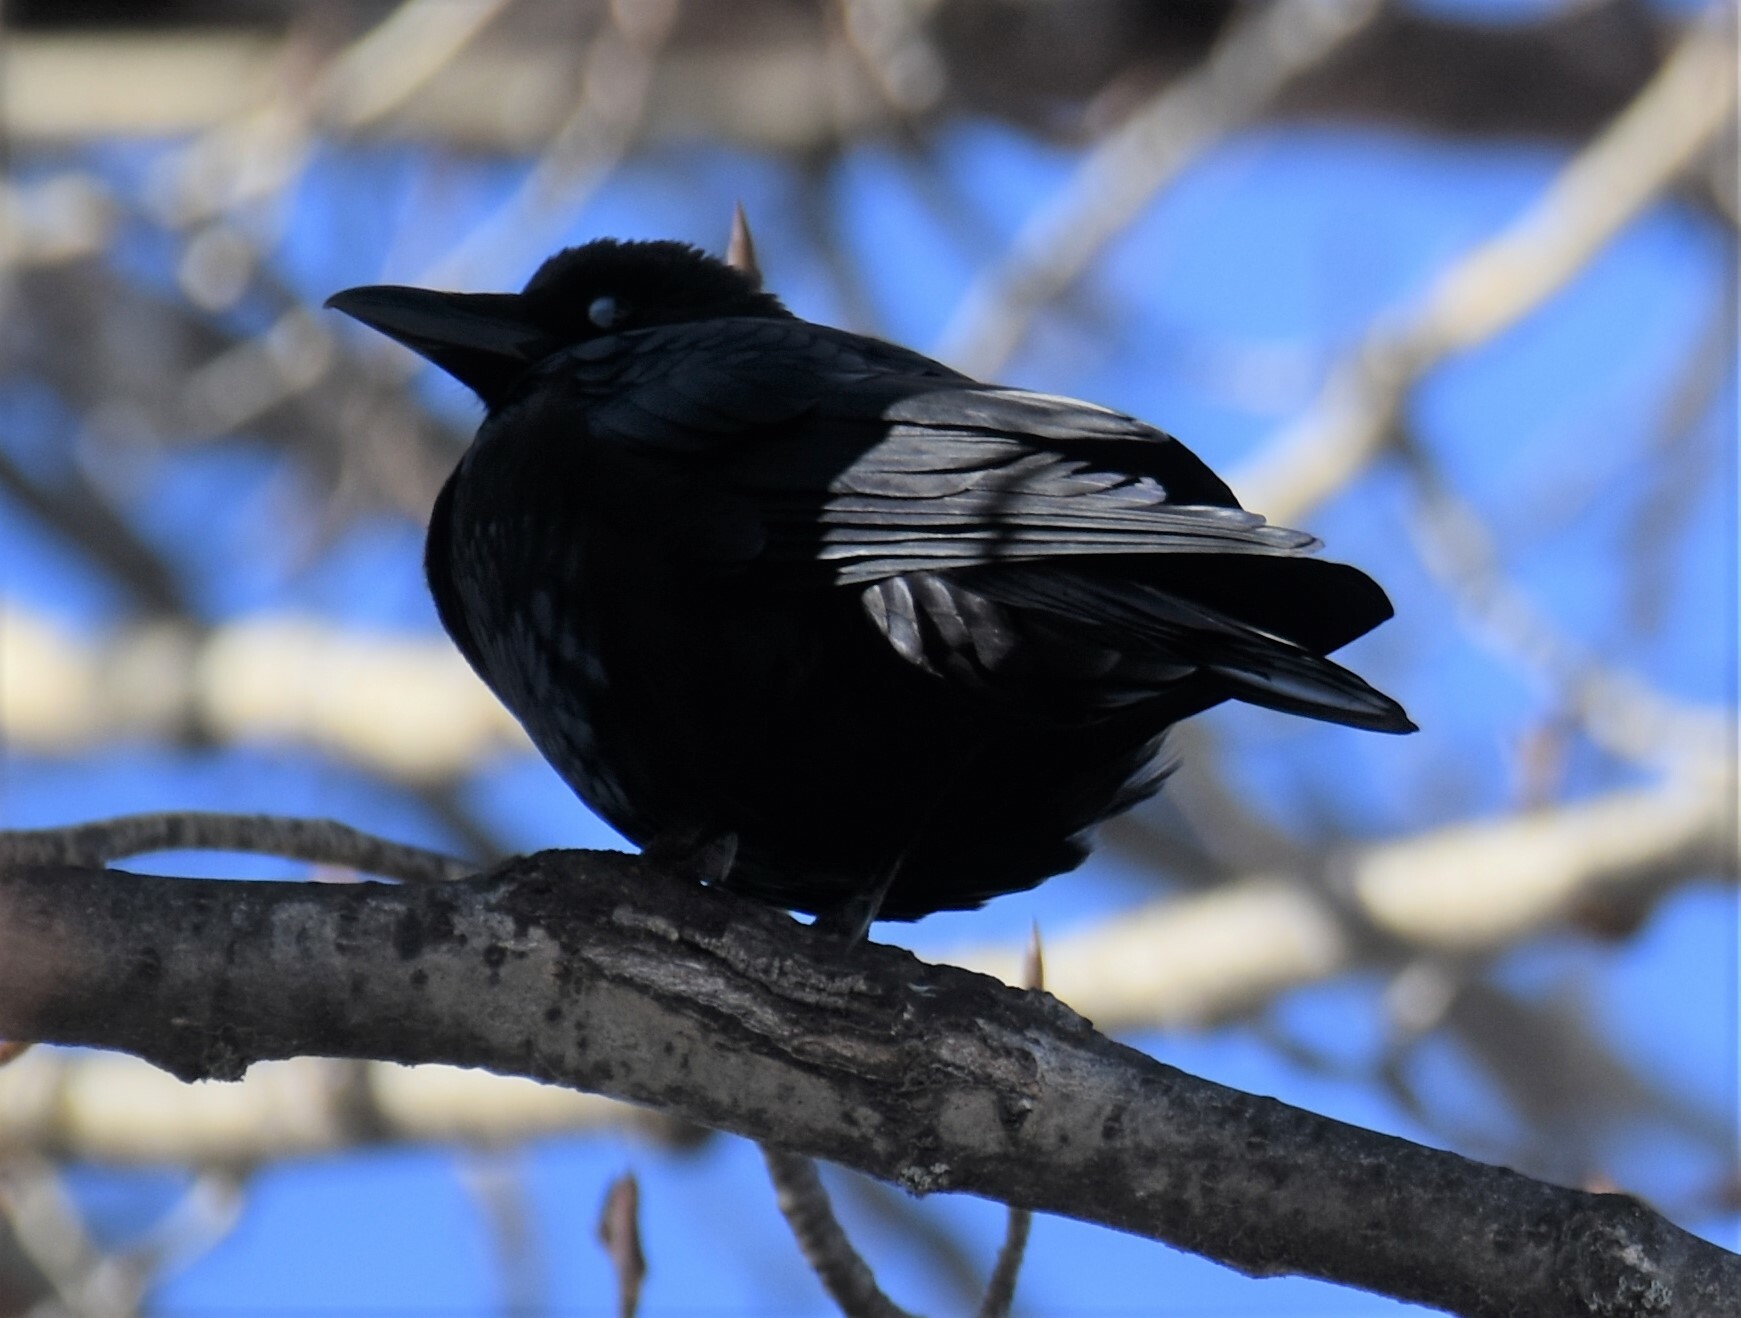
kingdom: Animalia
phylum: Chordata
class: Aves
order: Passeriformes
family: Corvidae
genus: Corvus
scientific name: Corvus corax
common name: Common raven
